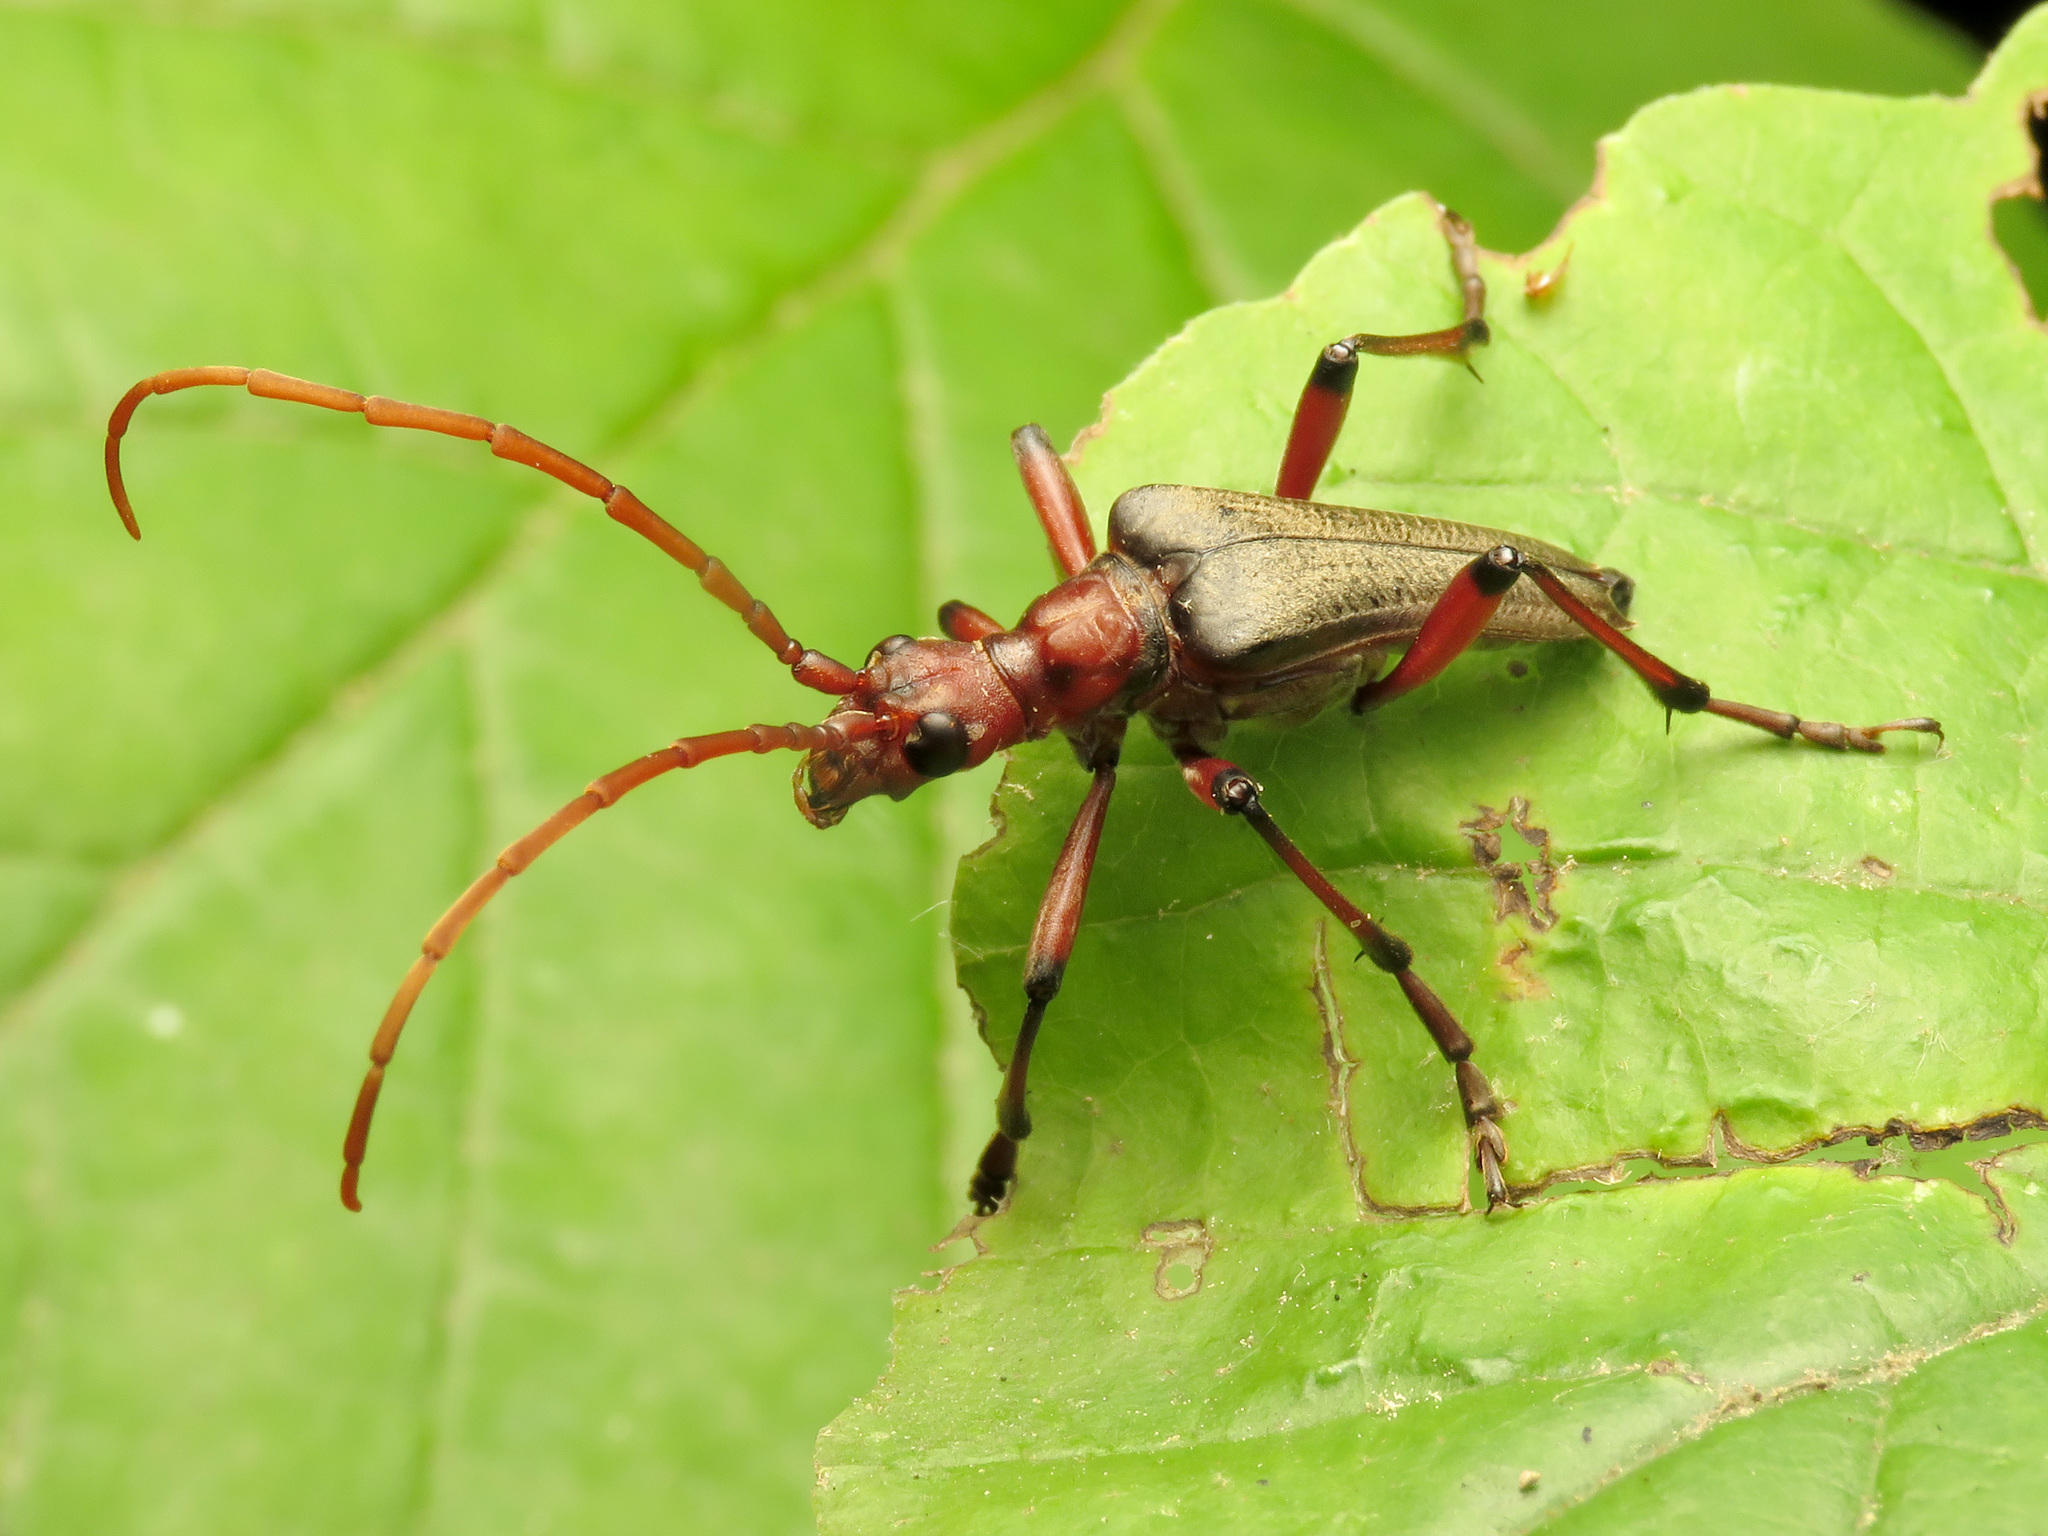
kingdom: Animalia
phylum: Arthropoda
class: Insecta
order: Coleoptera
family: Cerambycidae
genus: Stenocorus
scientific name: Stenocorus cylindricollis
